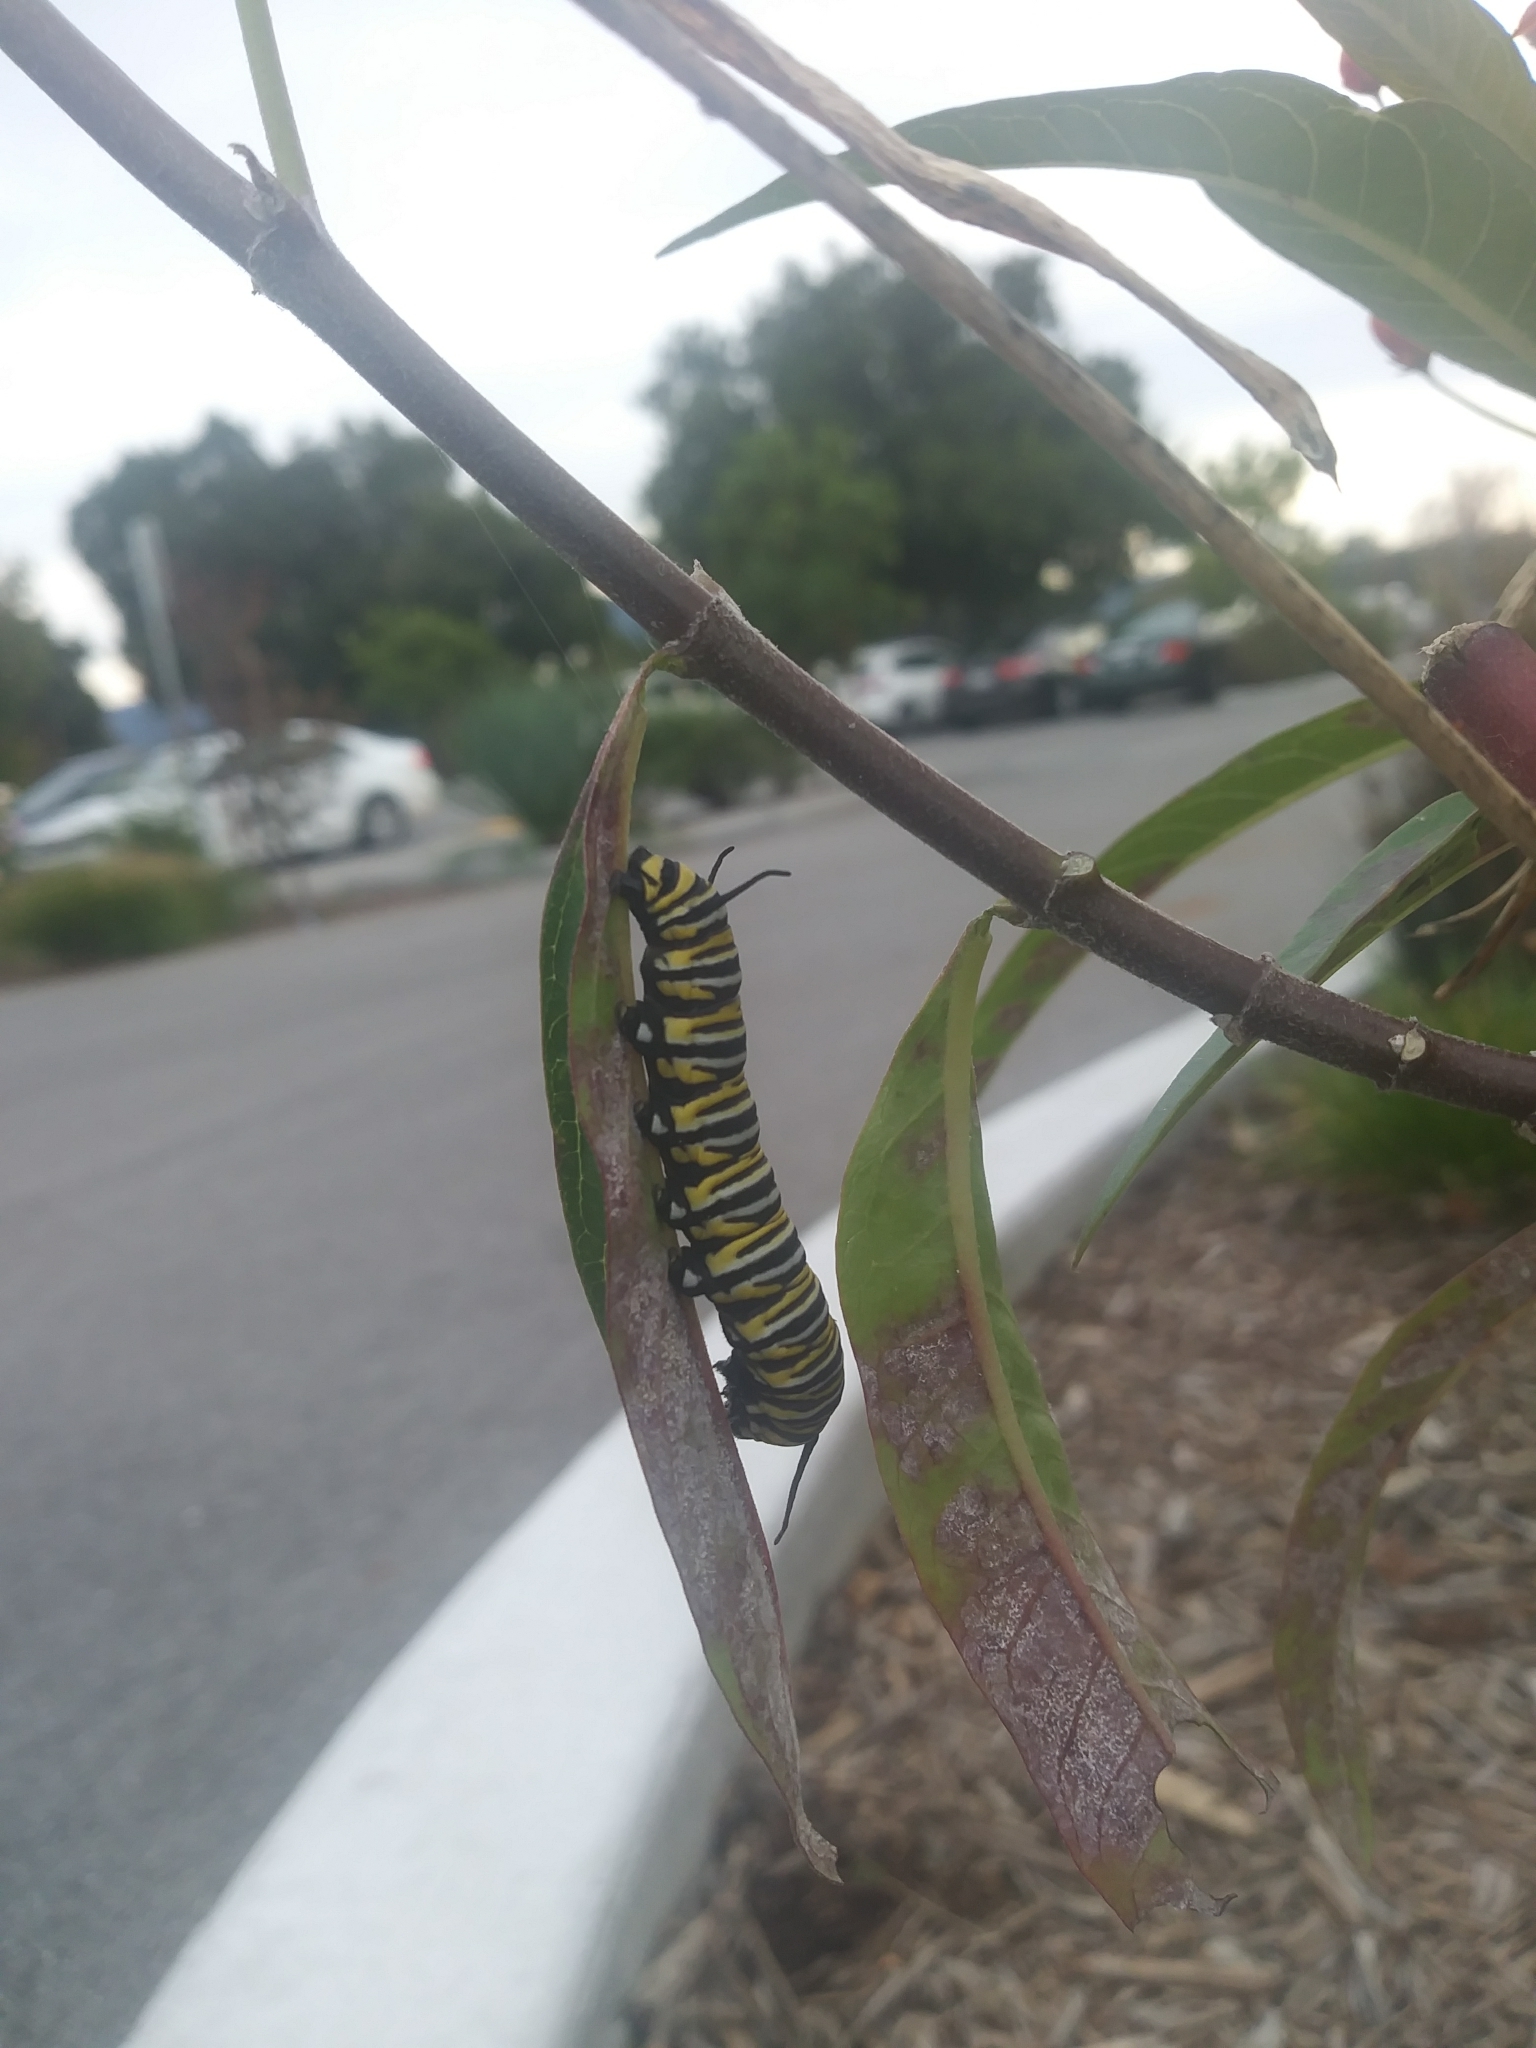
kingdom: Animalia
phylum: Arthropoda
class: Insecta
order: Lepidoptera
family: Nymphalidae
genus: Danaus
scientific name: Danaus plexippus
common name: Monarch
